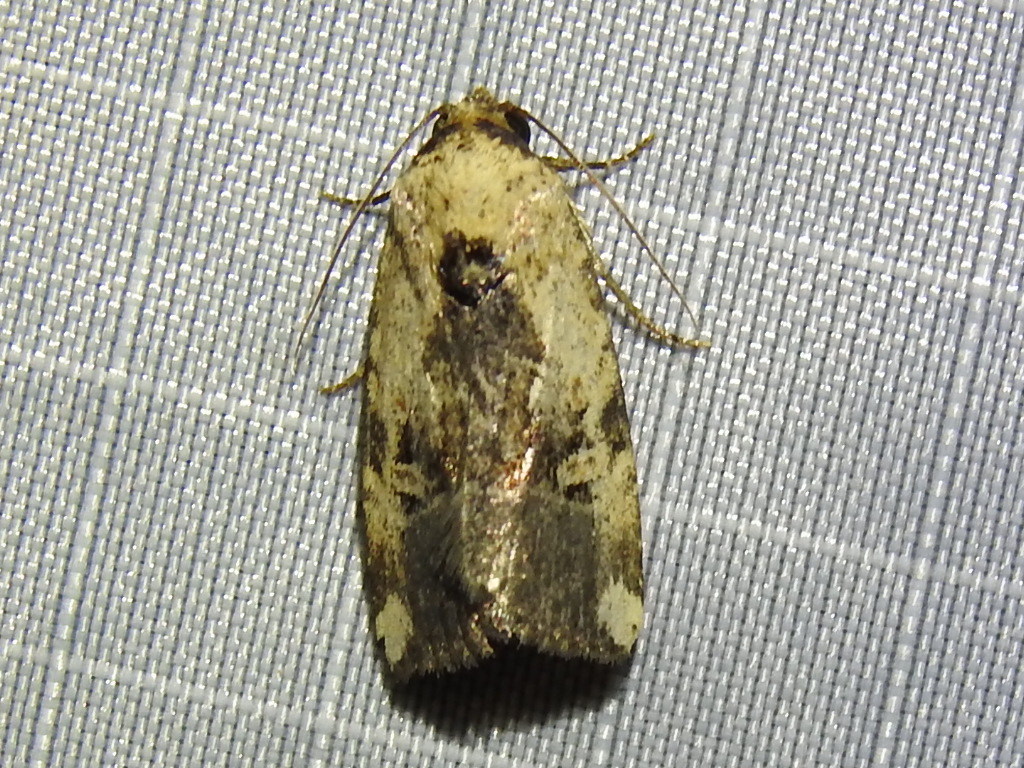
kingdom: Animalia
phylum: Arthropoda
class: Insecta
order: Lepidoptera
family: Noctuidae
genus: Elaphria
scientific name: Elaphria agrotina
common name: Agrotina midget
